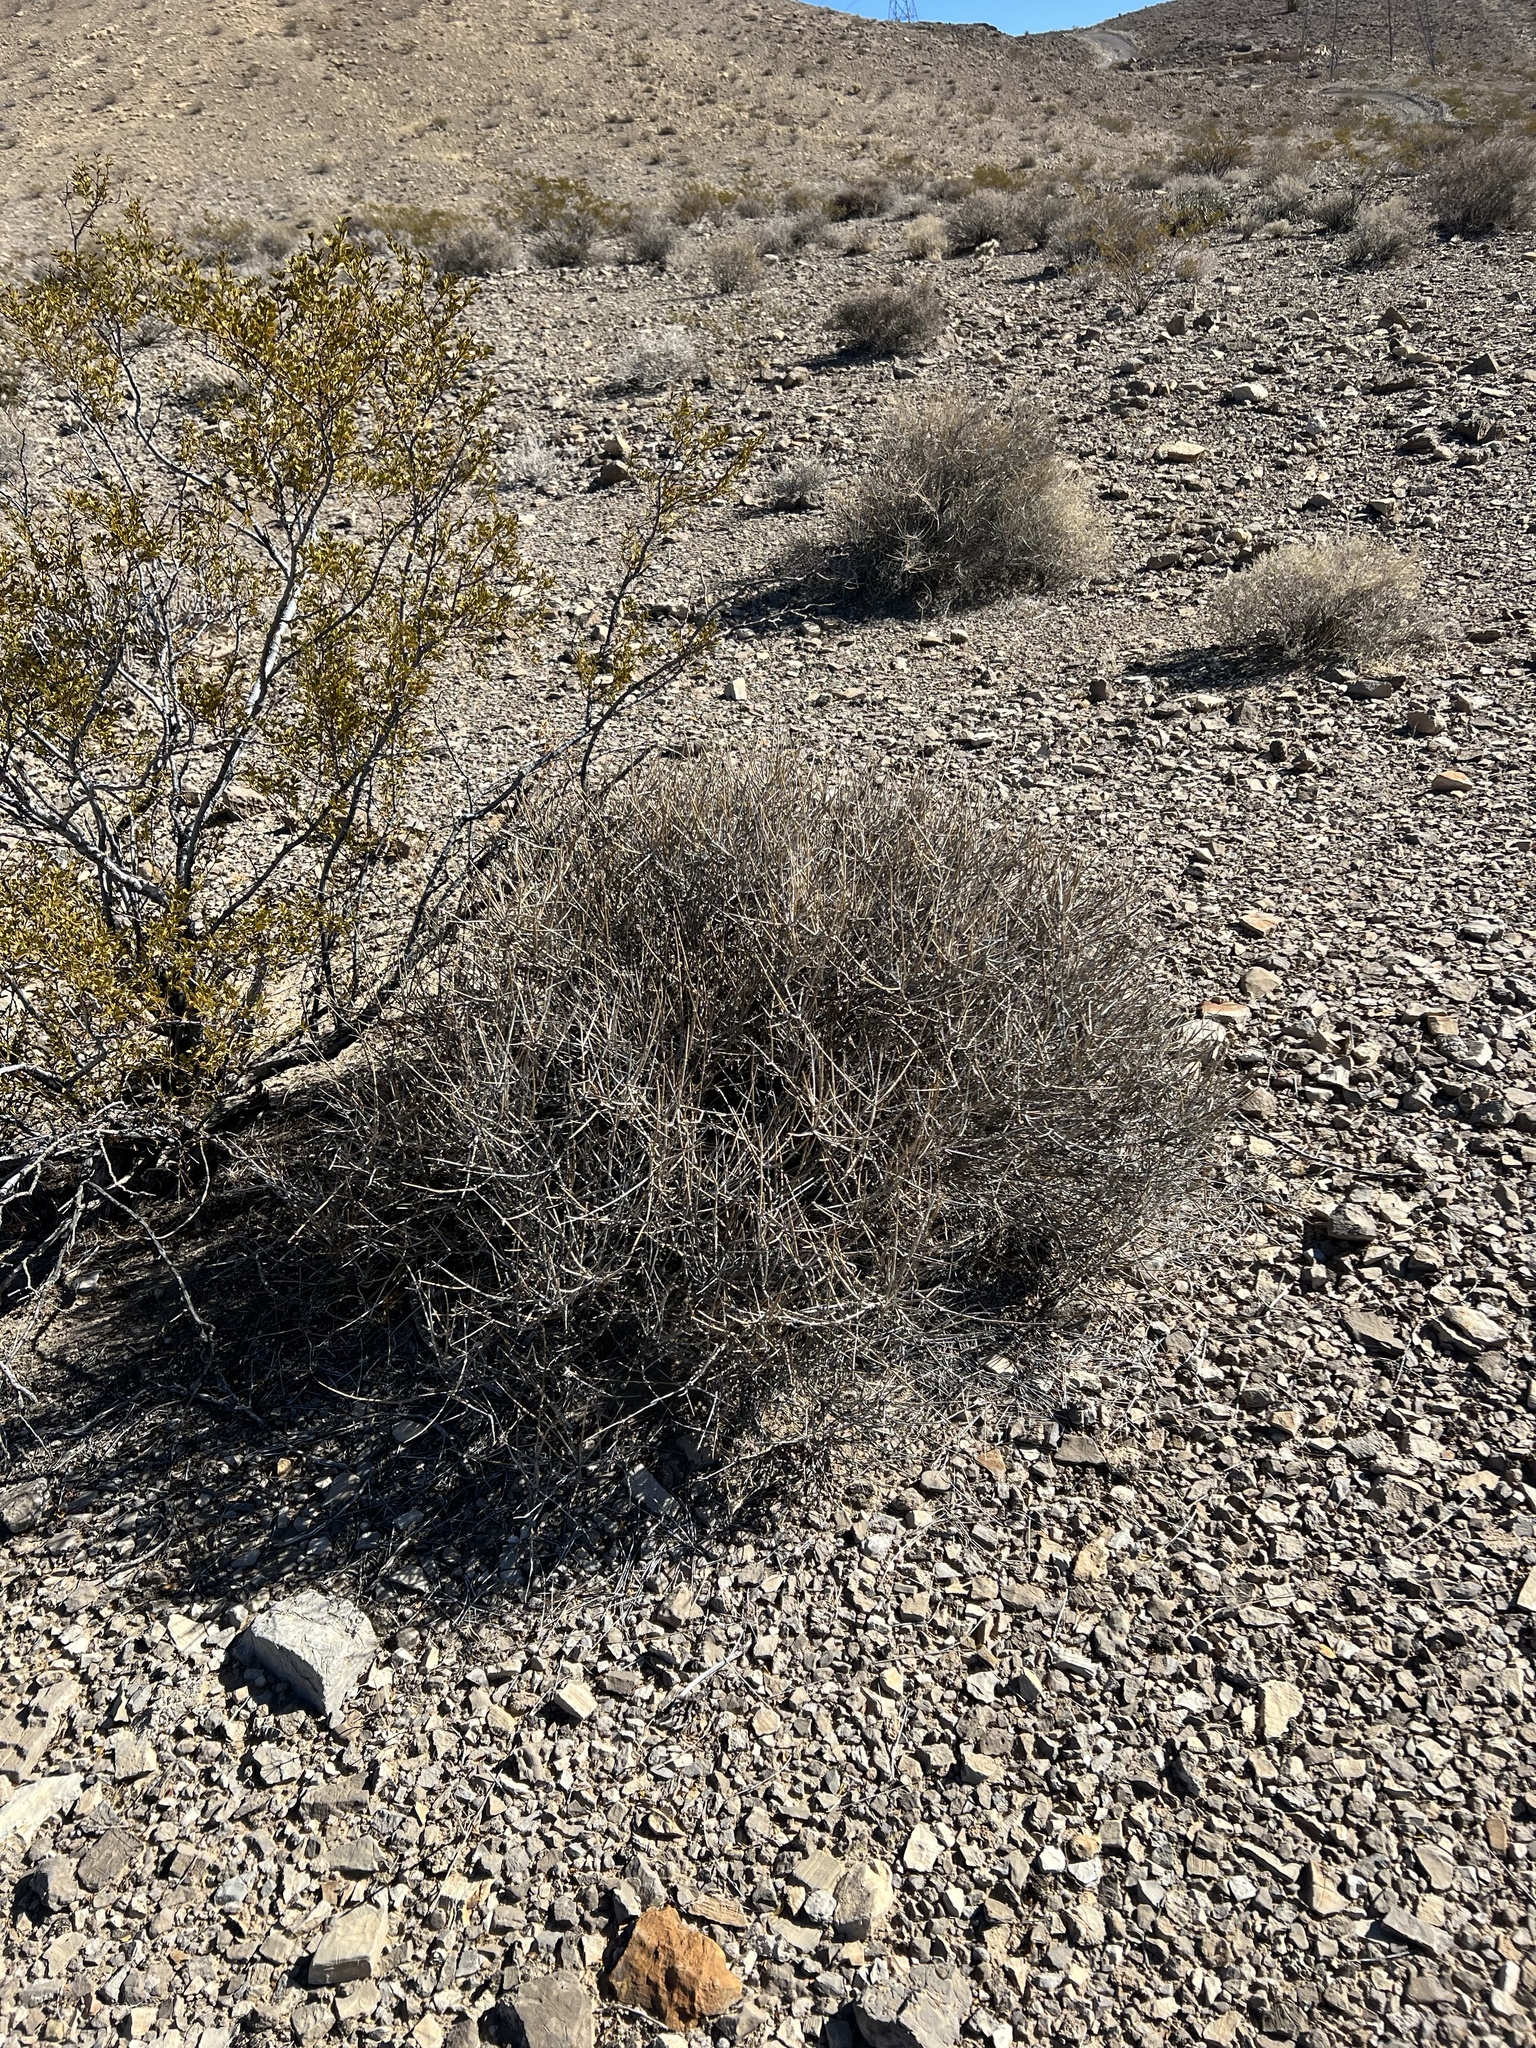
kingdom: Plantae
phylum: Tracheophyta
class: Gnetopsida
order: Ephedrales
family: Ephedraceae
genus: Ephedra
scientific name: Ephedra nevadensis
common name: Gray ephedra
